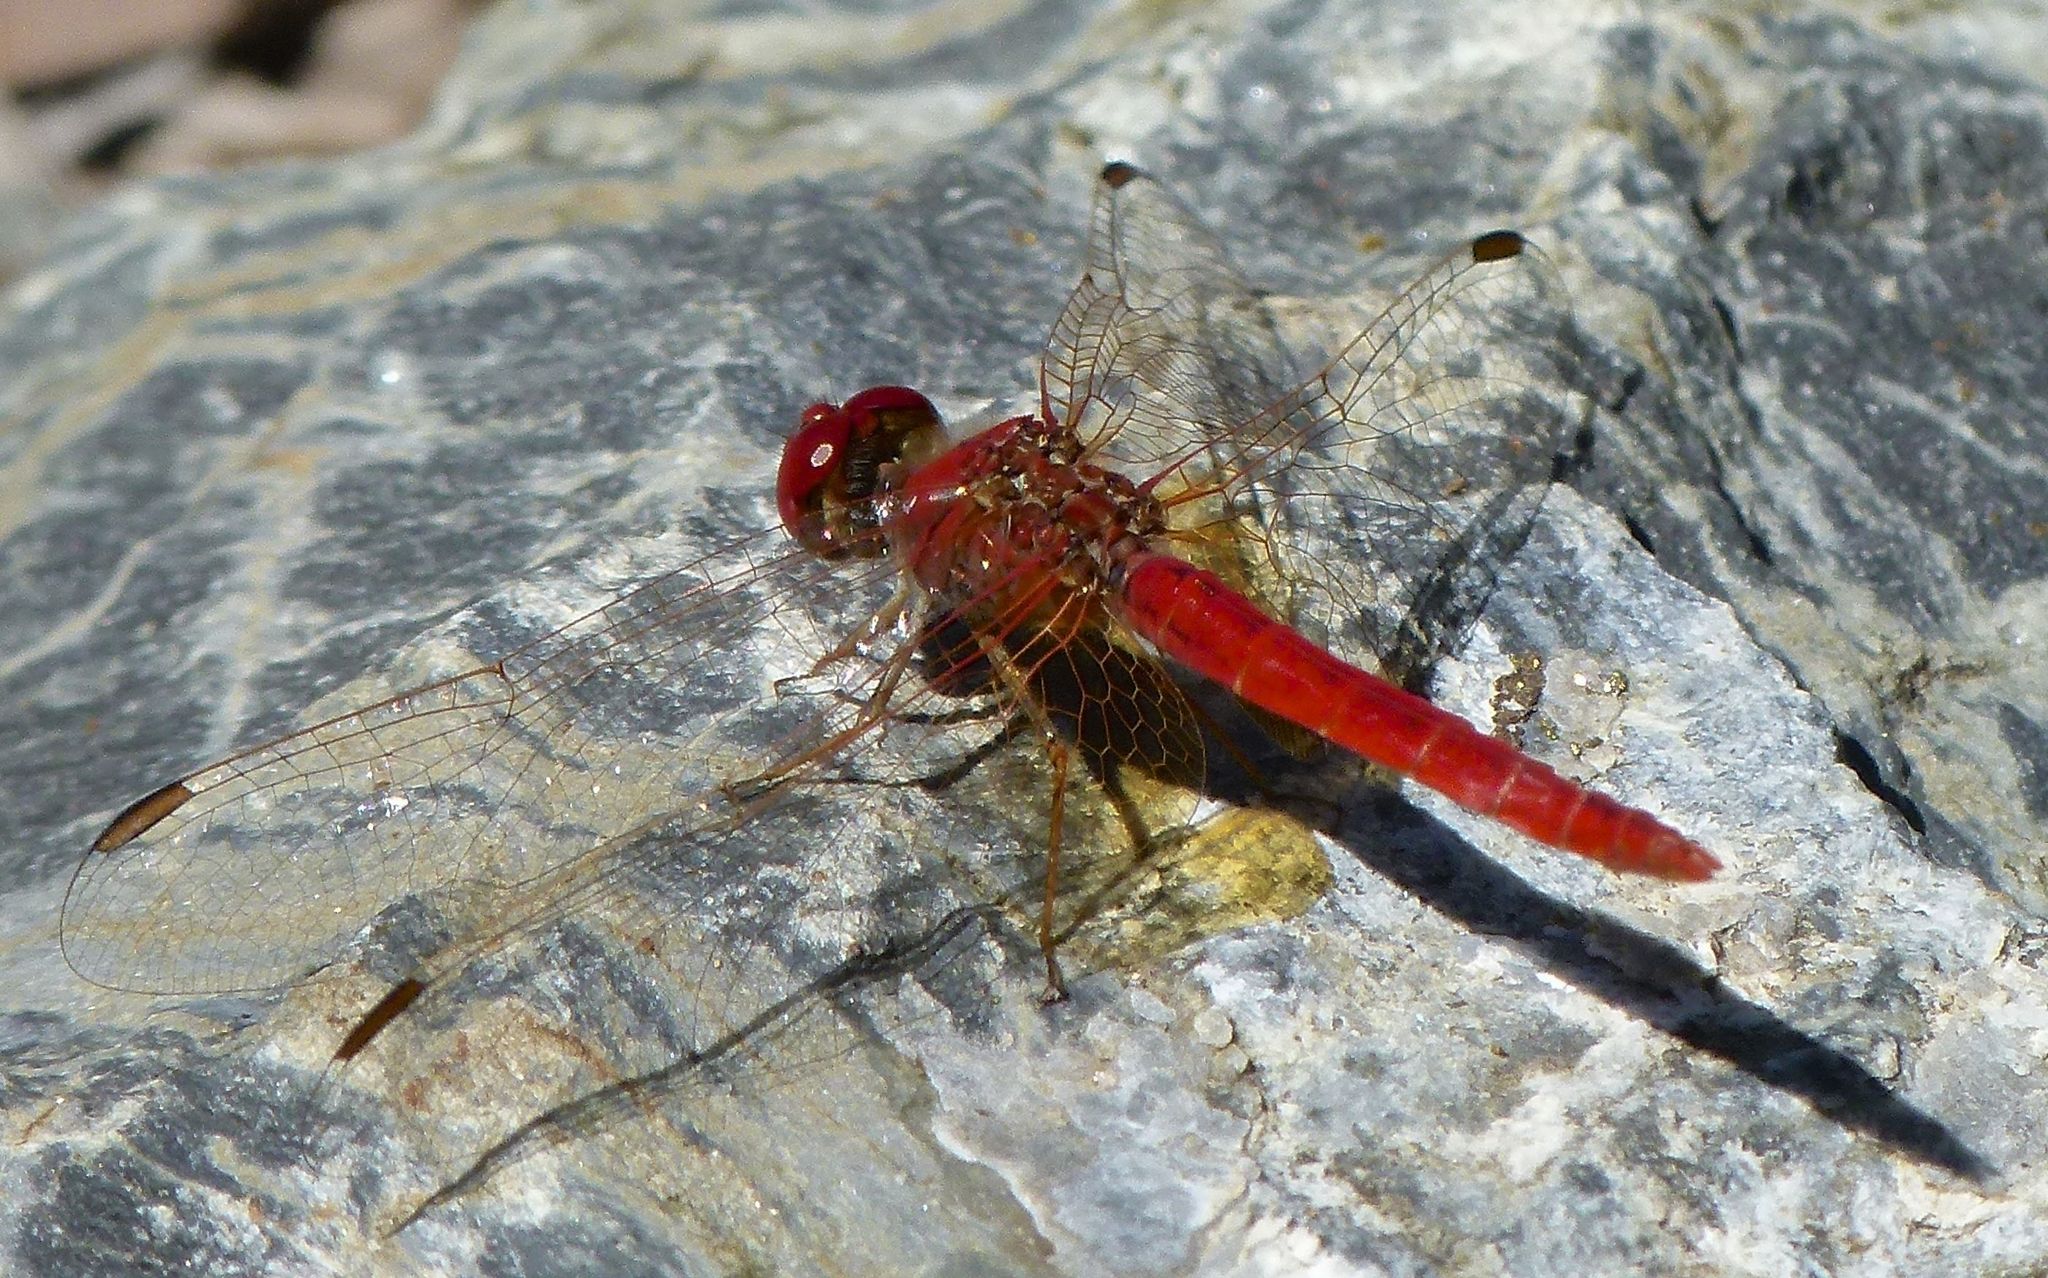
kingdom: Animalia
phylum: Arthropoda
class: Insecta
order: Odonata
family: Libellulidae
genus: Diplacodes
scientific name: Diplacodes haematodes
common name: Scarlet percher
